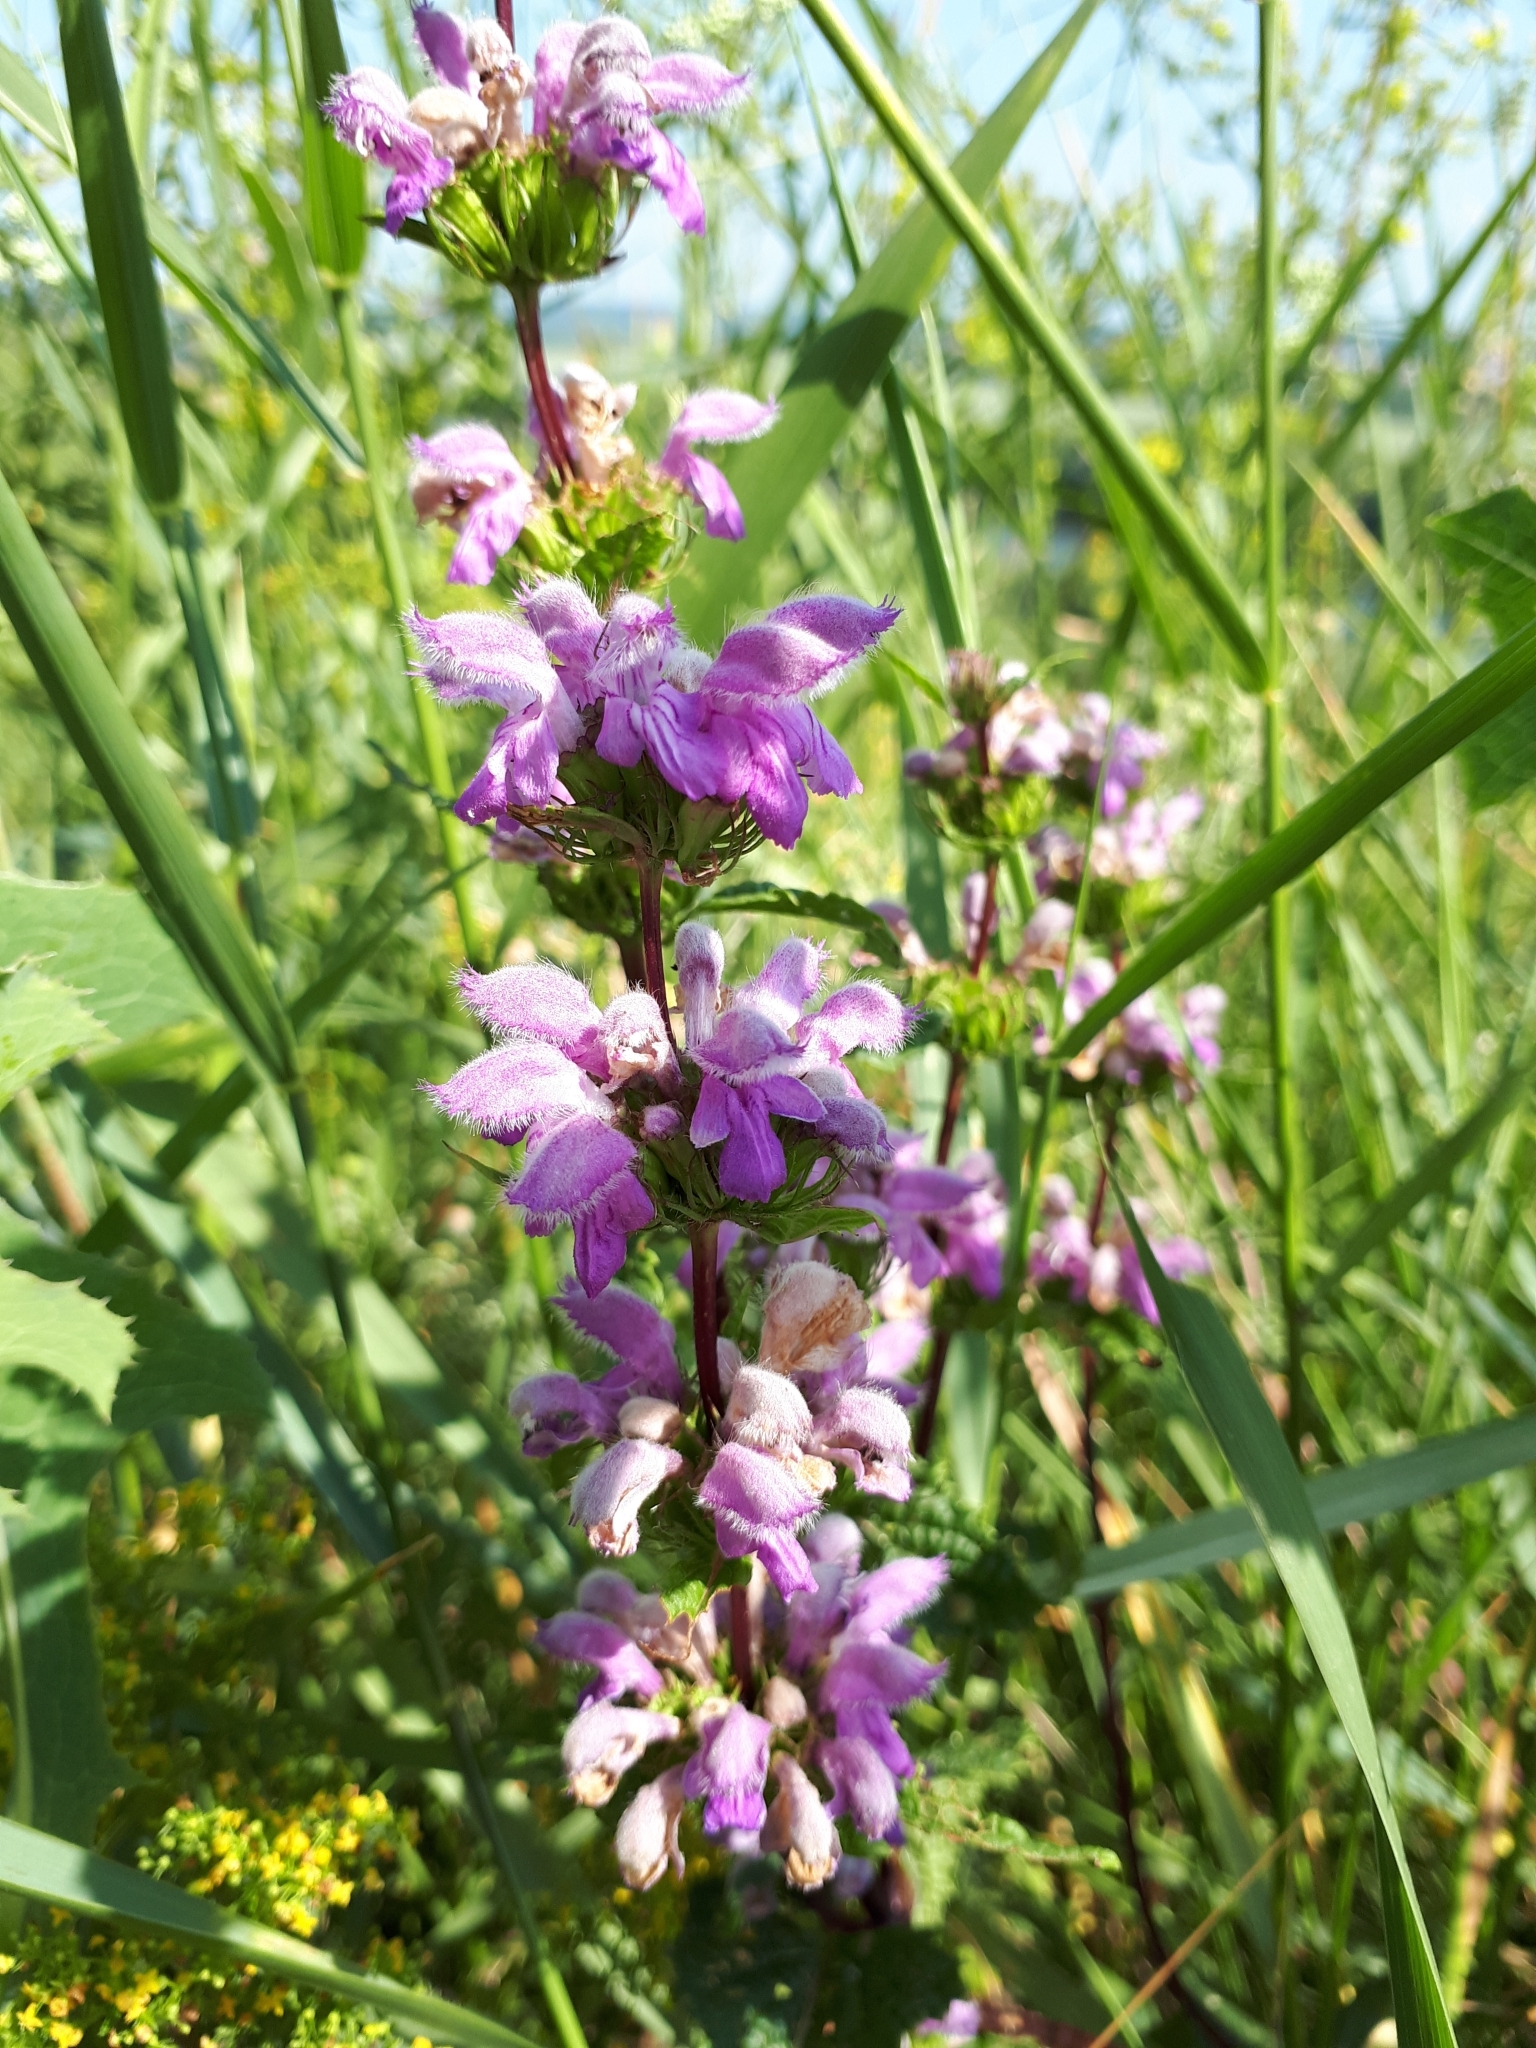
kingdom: Plantae
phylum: Tracheophyta
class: Magnoliopsida
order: Lamiales
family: Lamiaceae
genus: Phlomoides
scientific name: Phlomoides tuberosa
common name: Tuberous jerusalem sage
